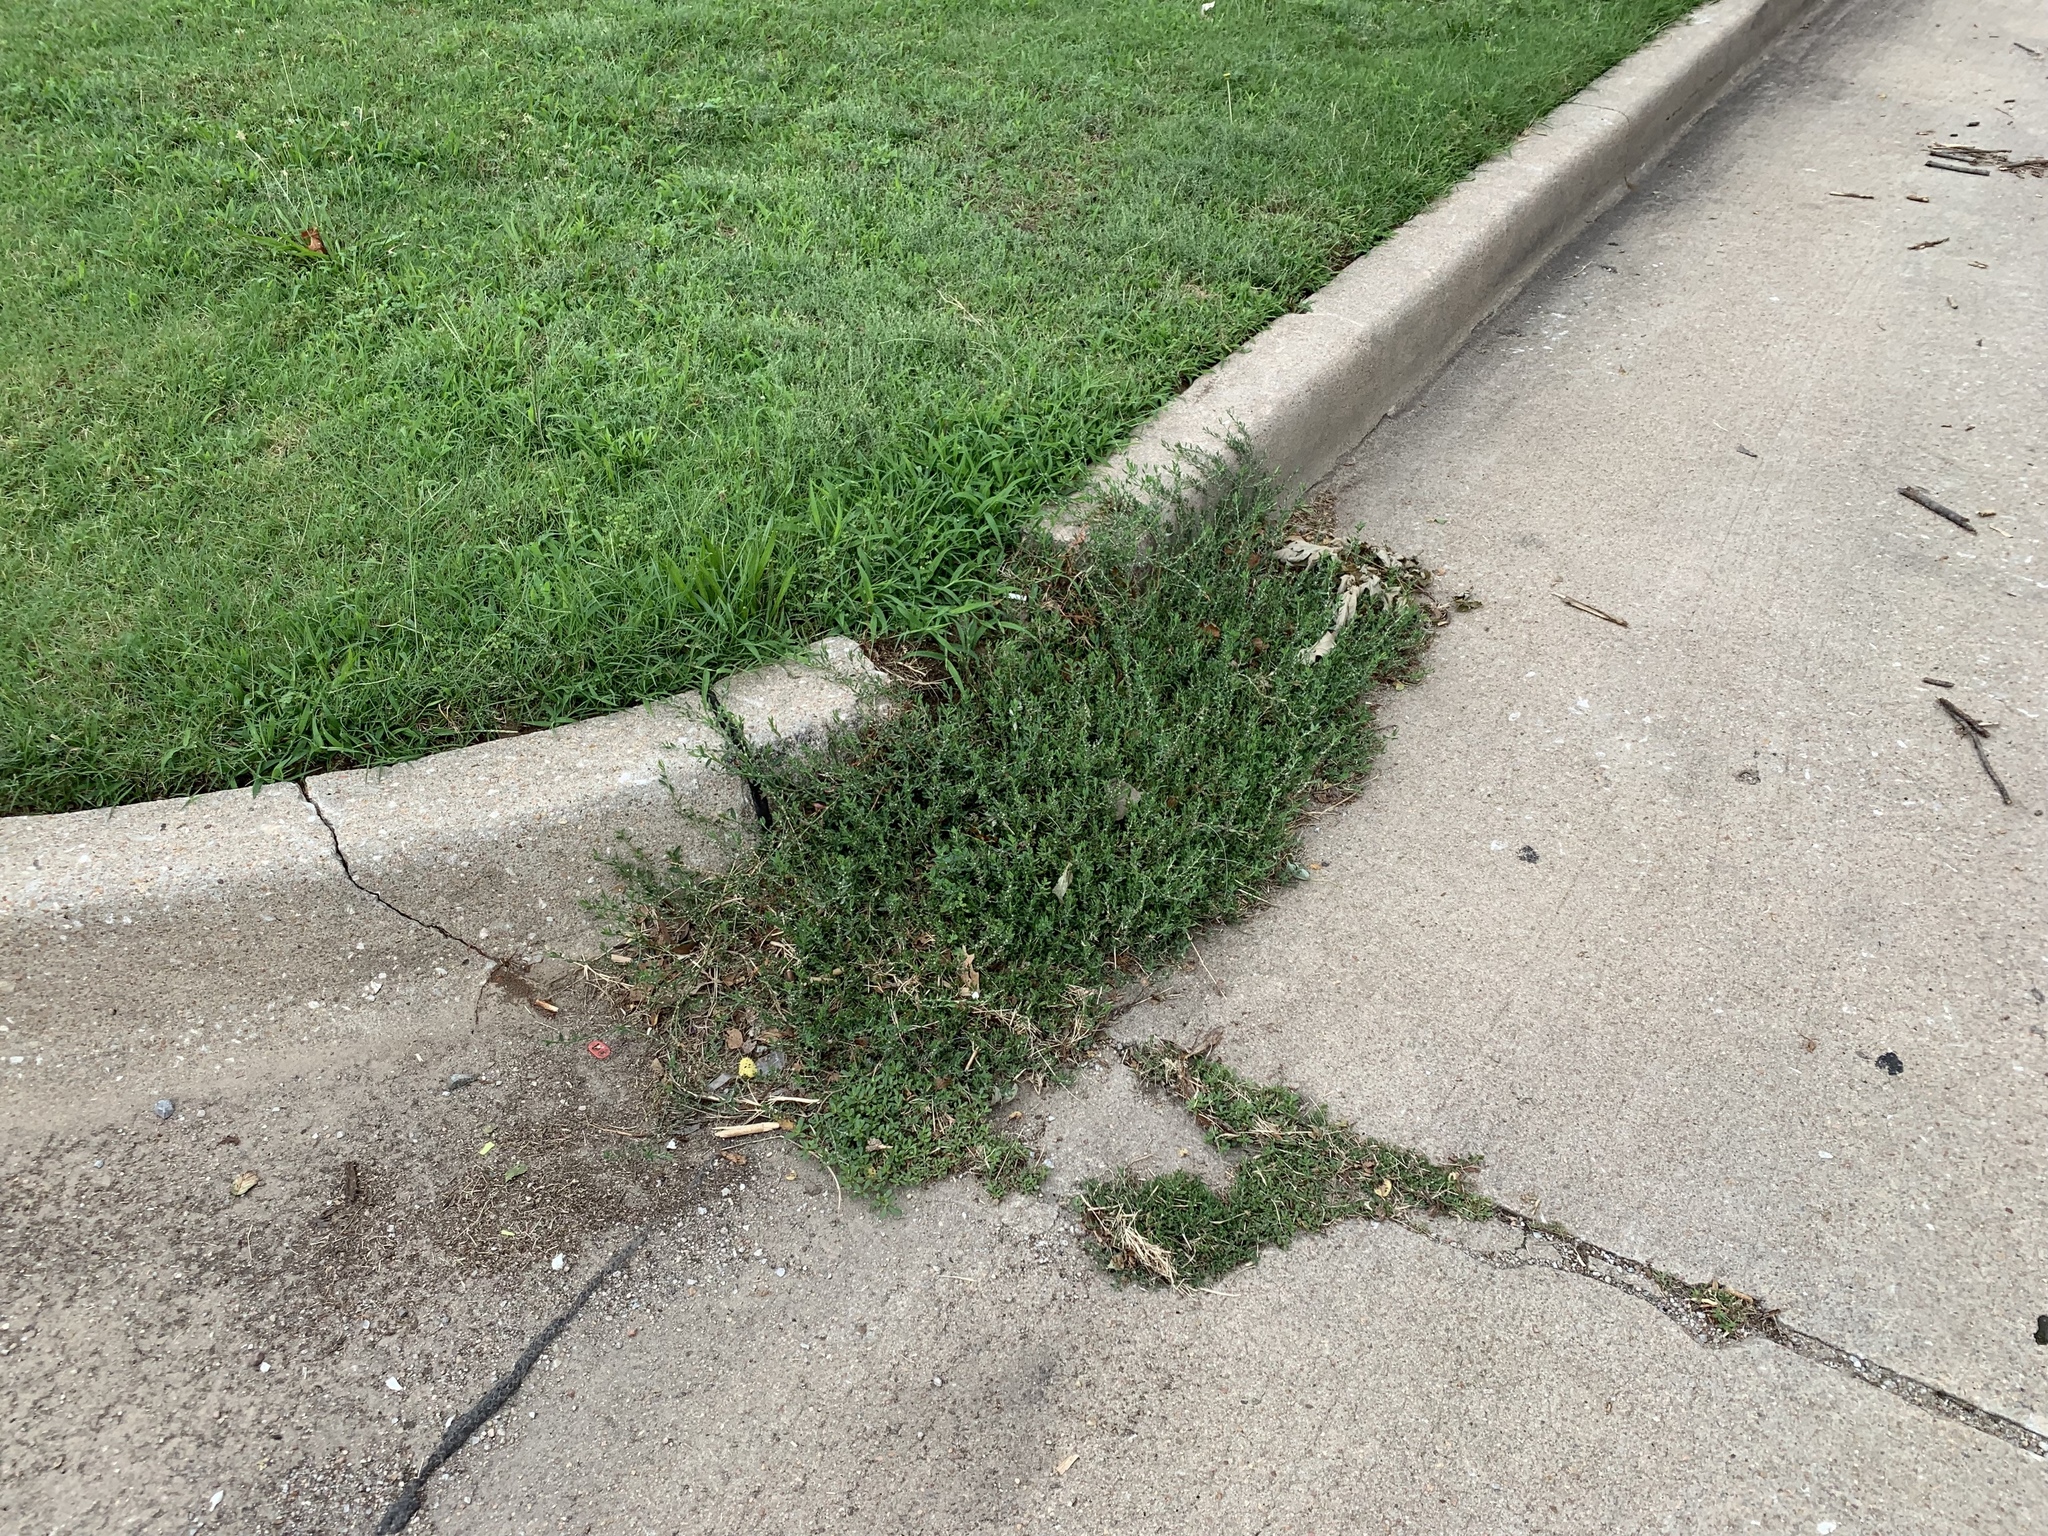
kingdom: Plantae
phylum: Tracheophyta
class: Magnoliopsida
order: Caryophyllales
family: Polygonaceae
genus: Polygonum
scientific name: Polygonum aviculare
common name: Prostrate knotweed
